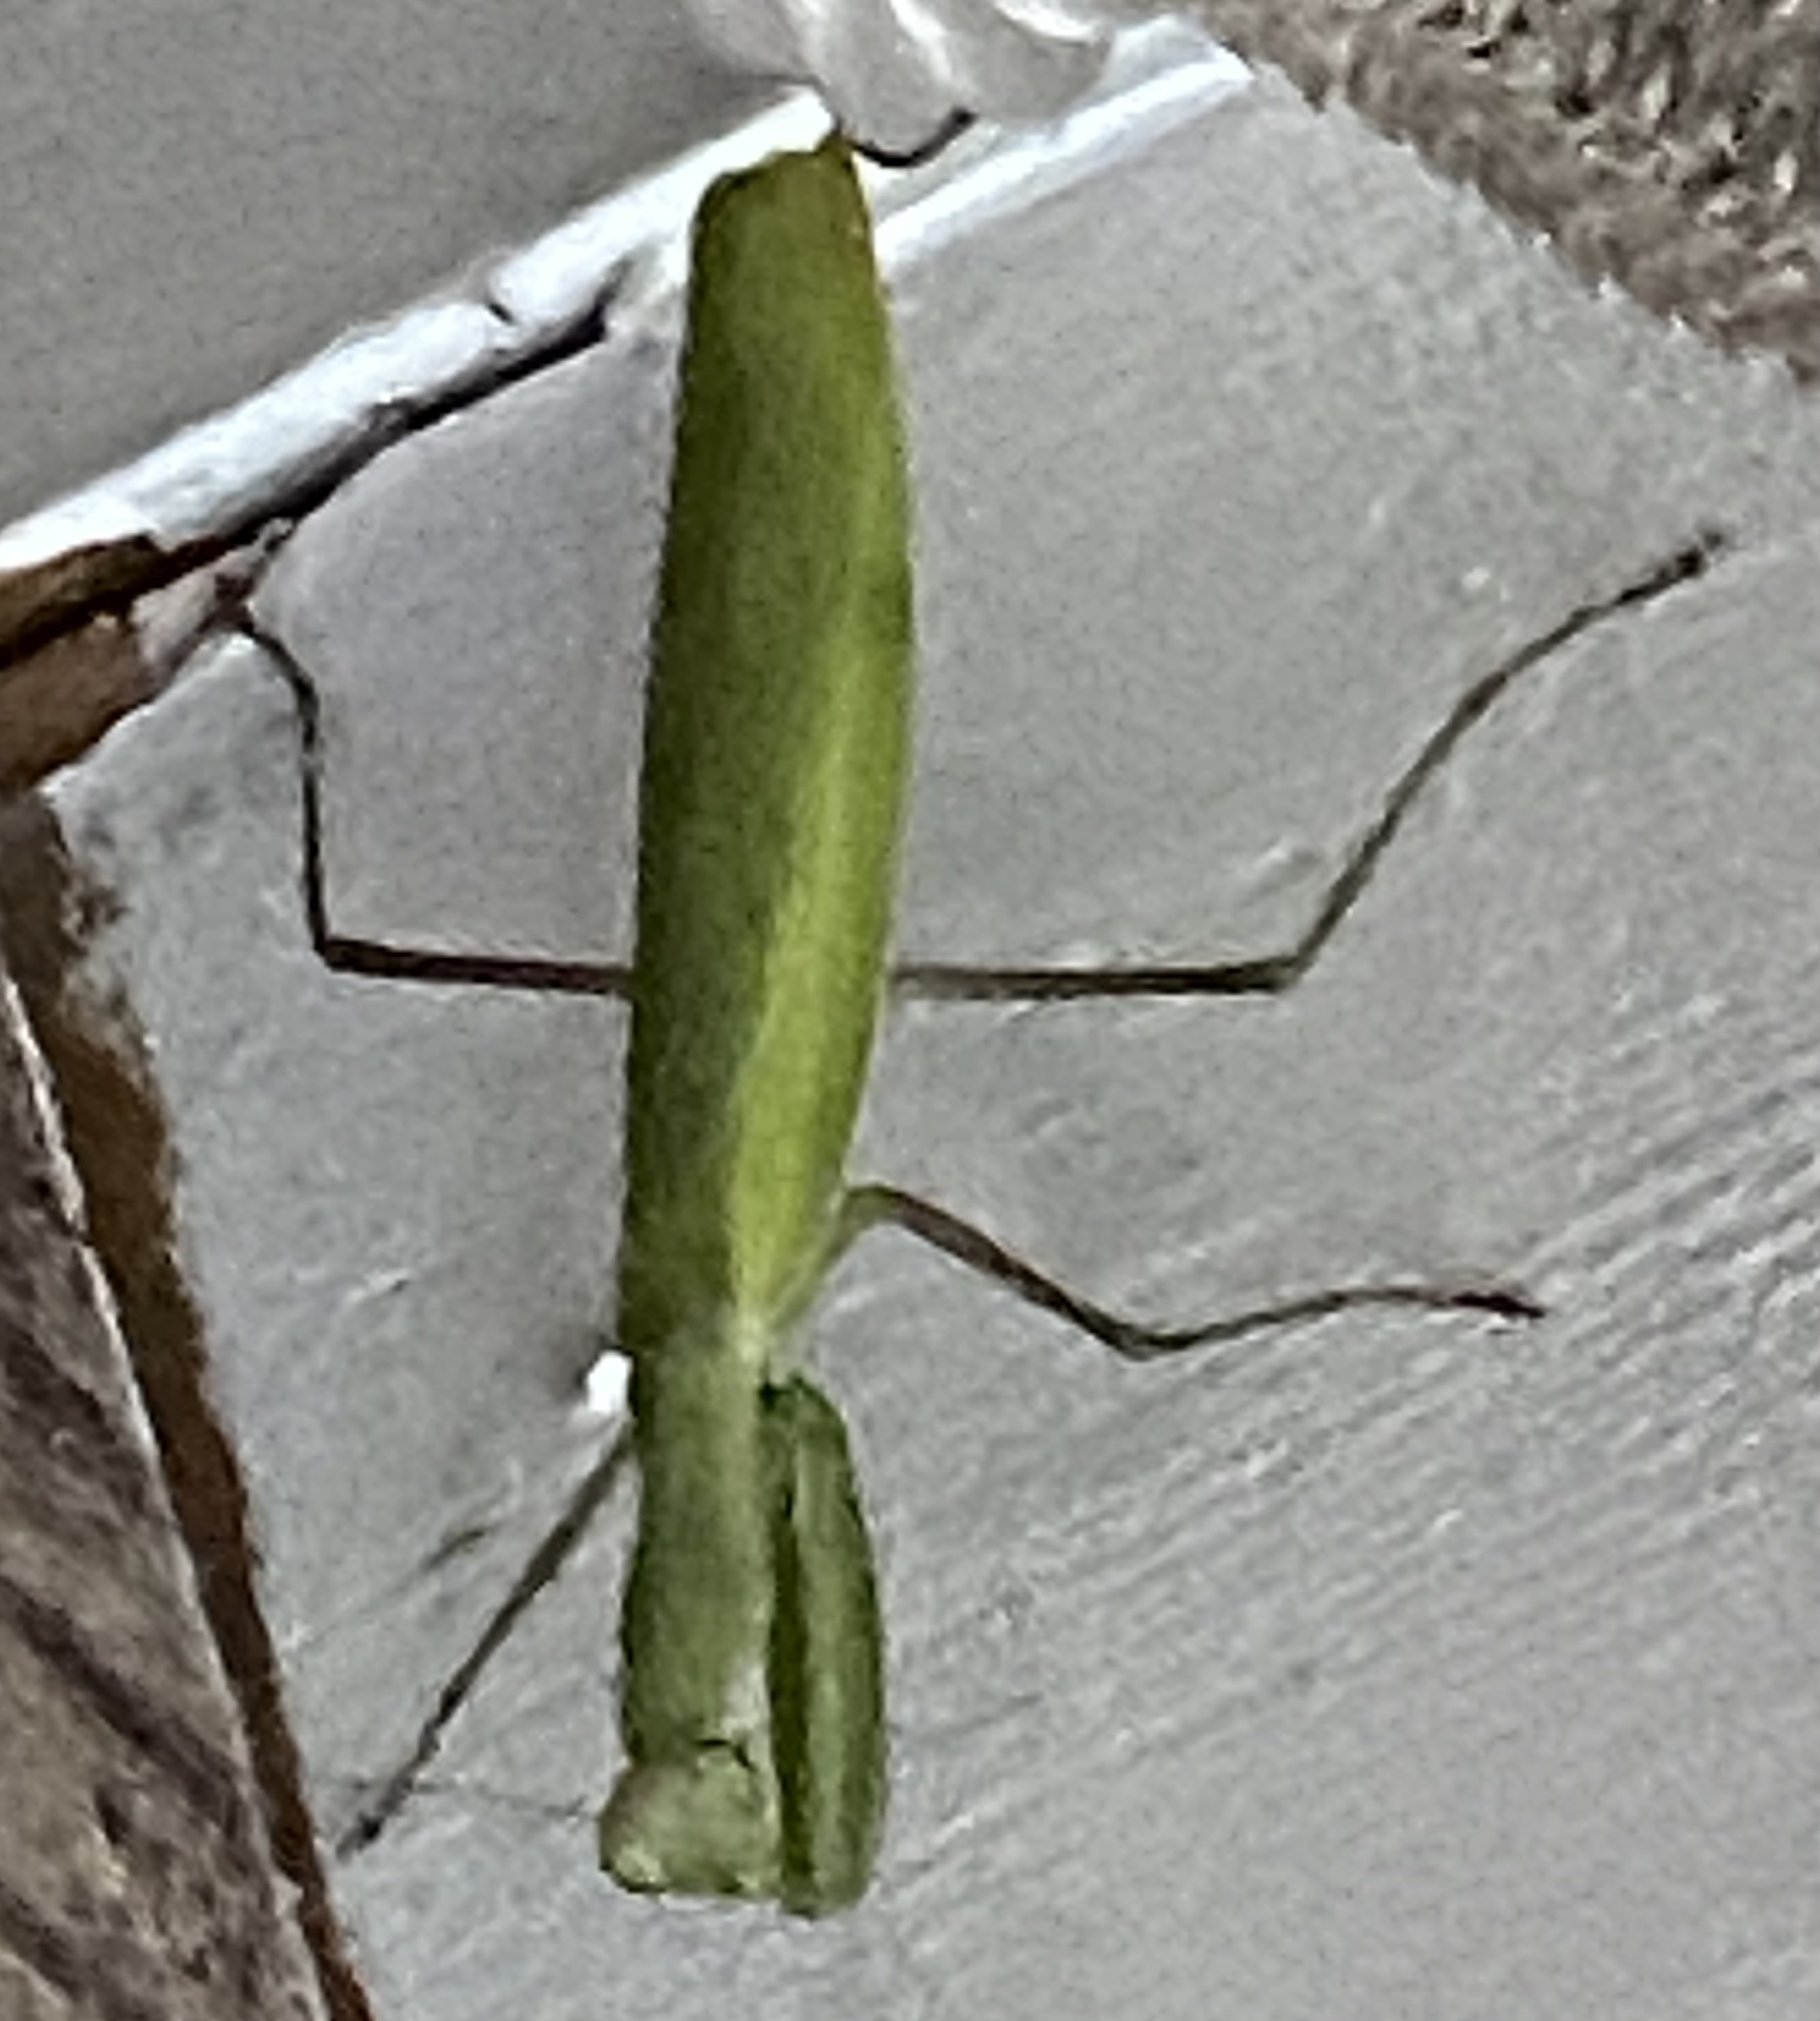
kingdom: Animalia
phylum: Arthropoda
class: Insecta
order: Mantodea
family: Mantidae
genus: Mantis
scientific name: Mantis religiosa
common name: Praying mantis
